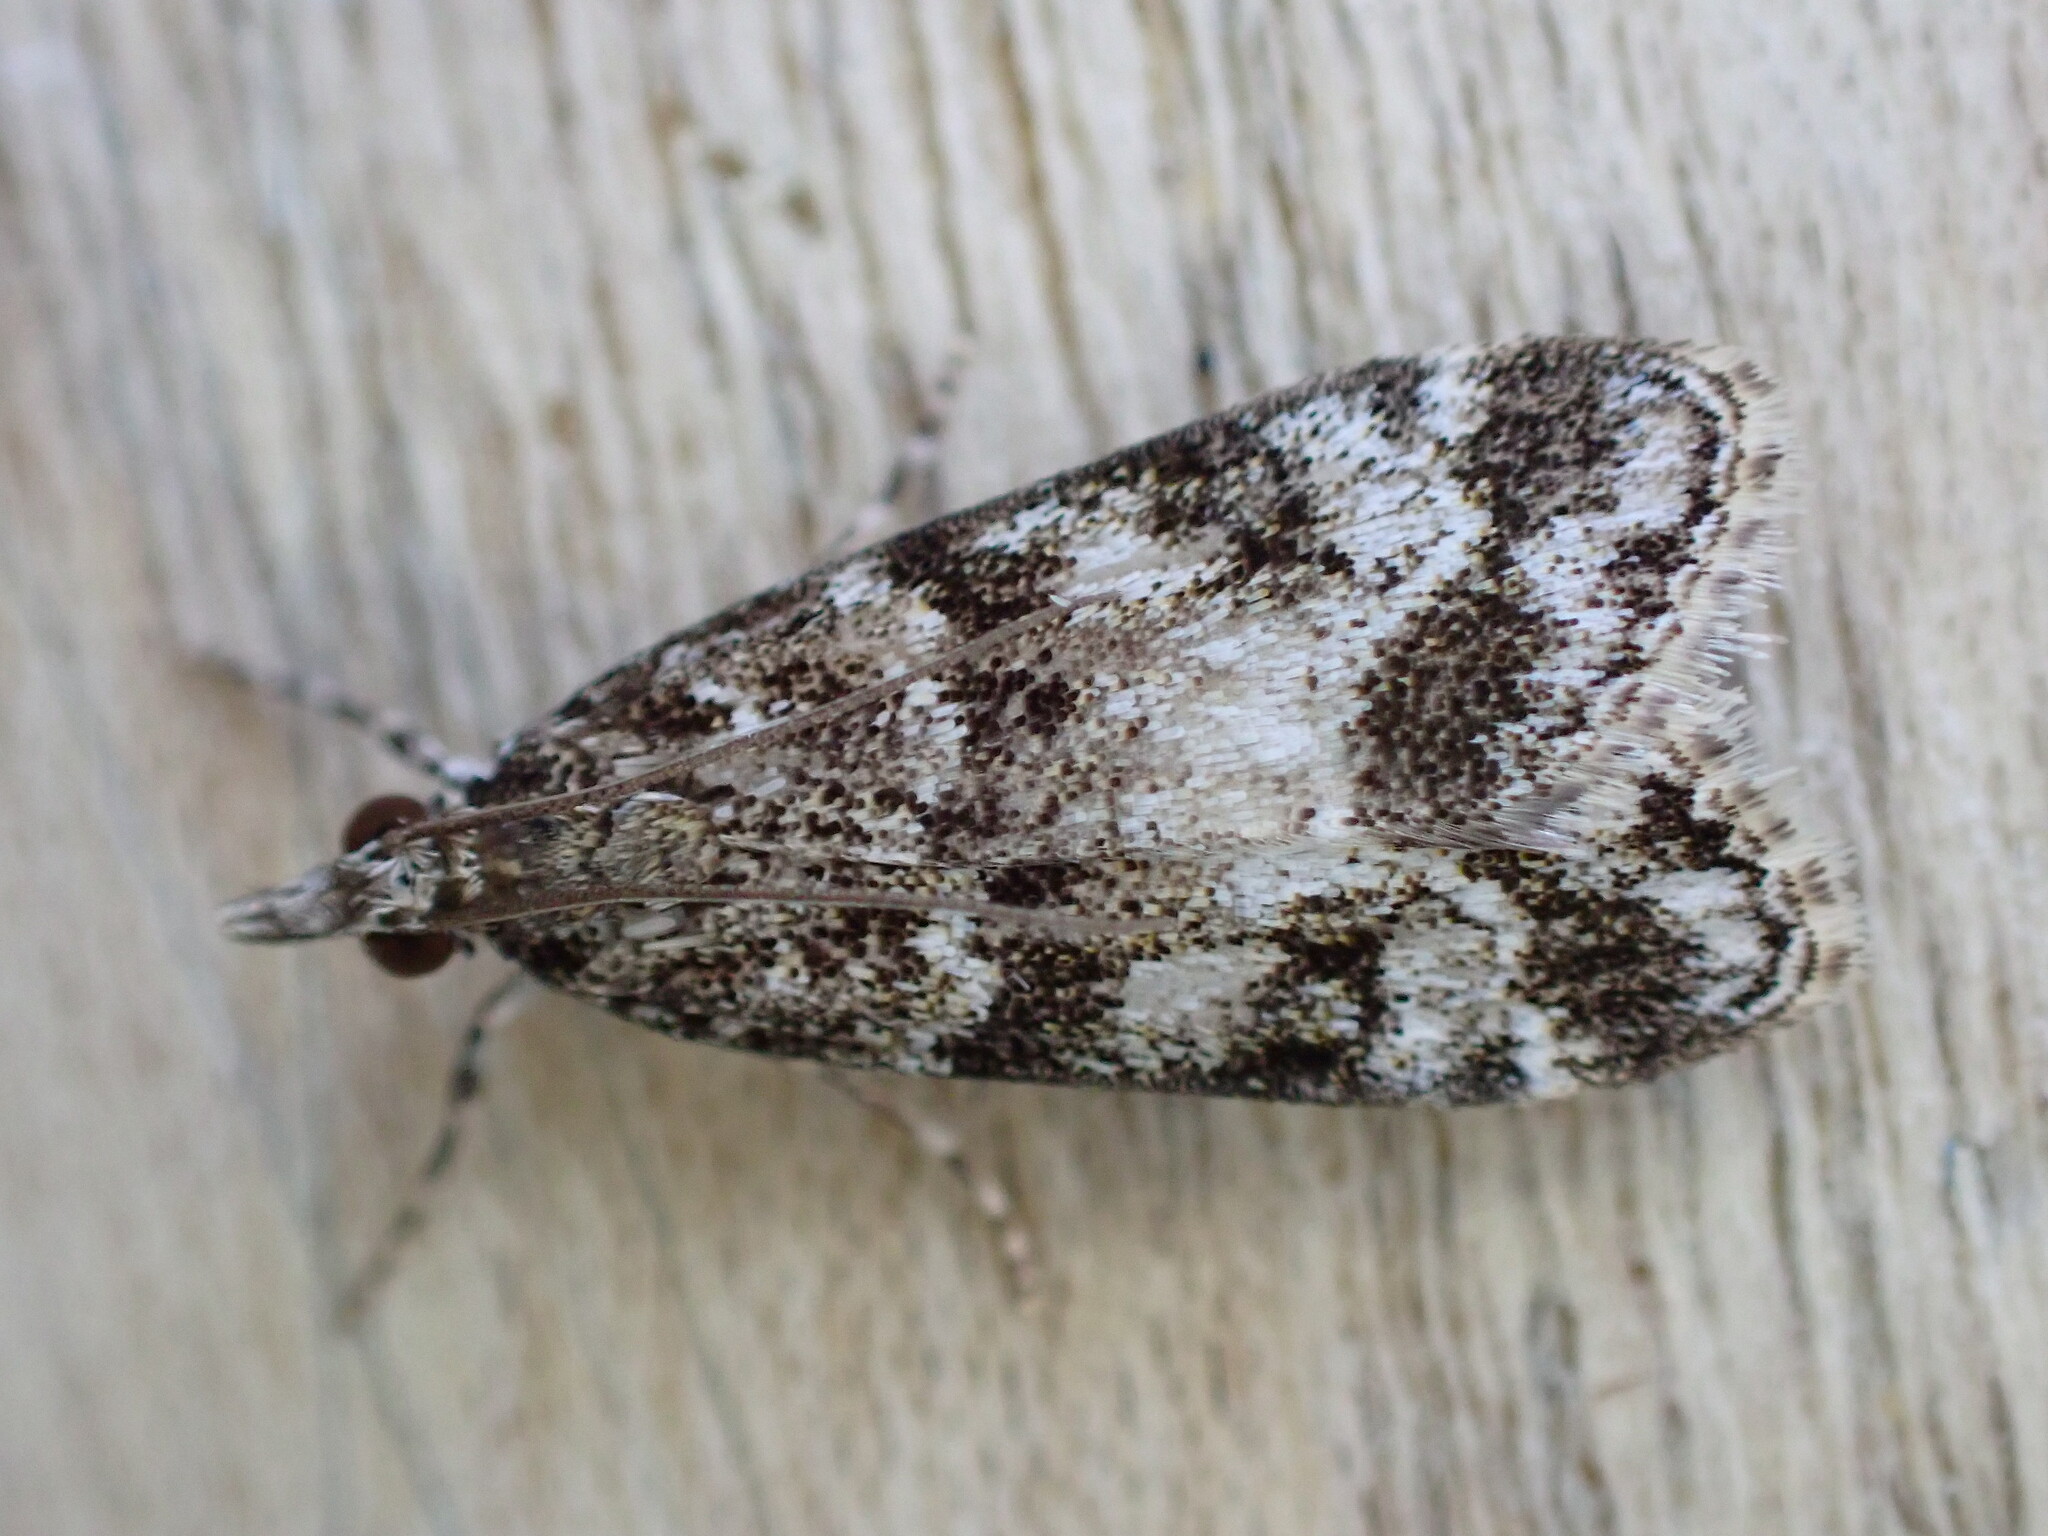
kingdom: Animalia
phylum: Arthropoda
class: Insecta
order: Lepidoptera
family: Crambidae
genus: Eudonia
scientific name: Eudonia mercurella
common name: Small grey
